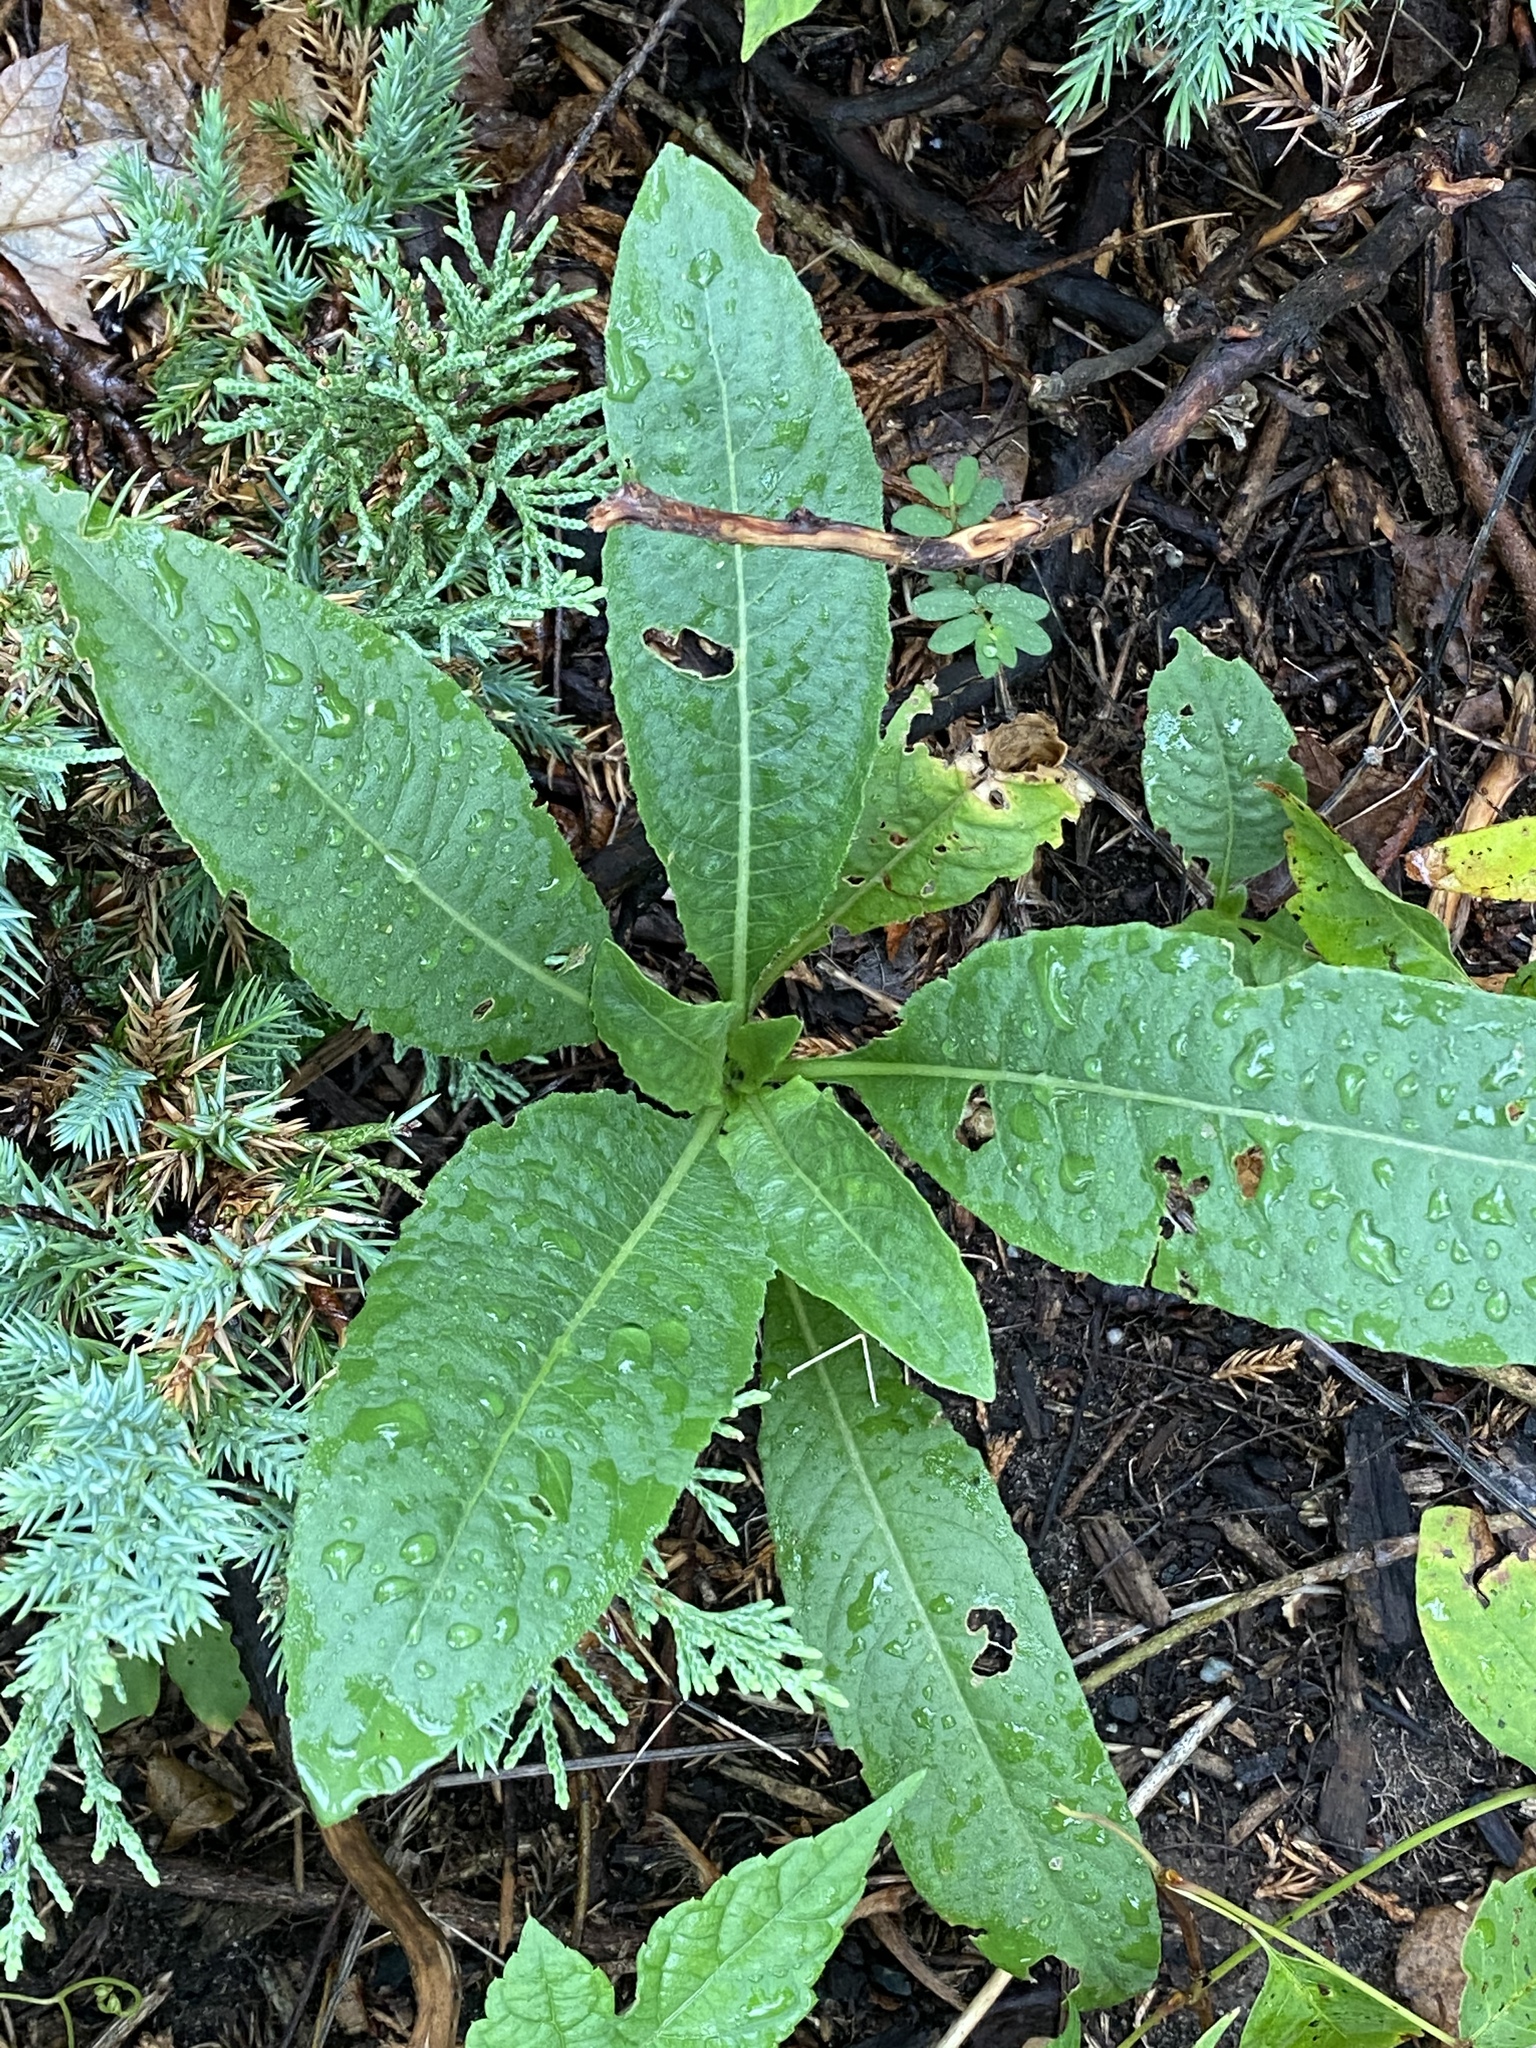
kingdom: Plantae
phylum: Tracheophyta
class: Magnoliopsida
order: Dipsacales
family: Caprifoliaceae
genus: Dipsacus
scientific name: Dipsacus fullonum
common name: Teasel
